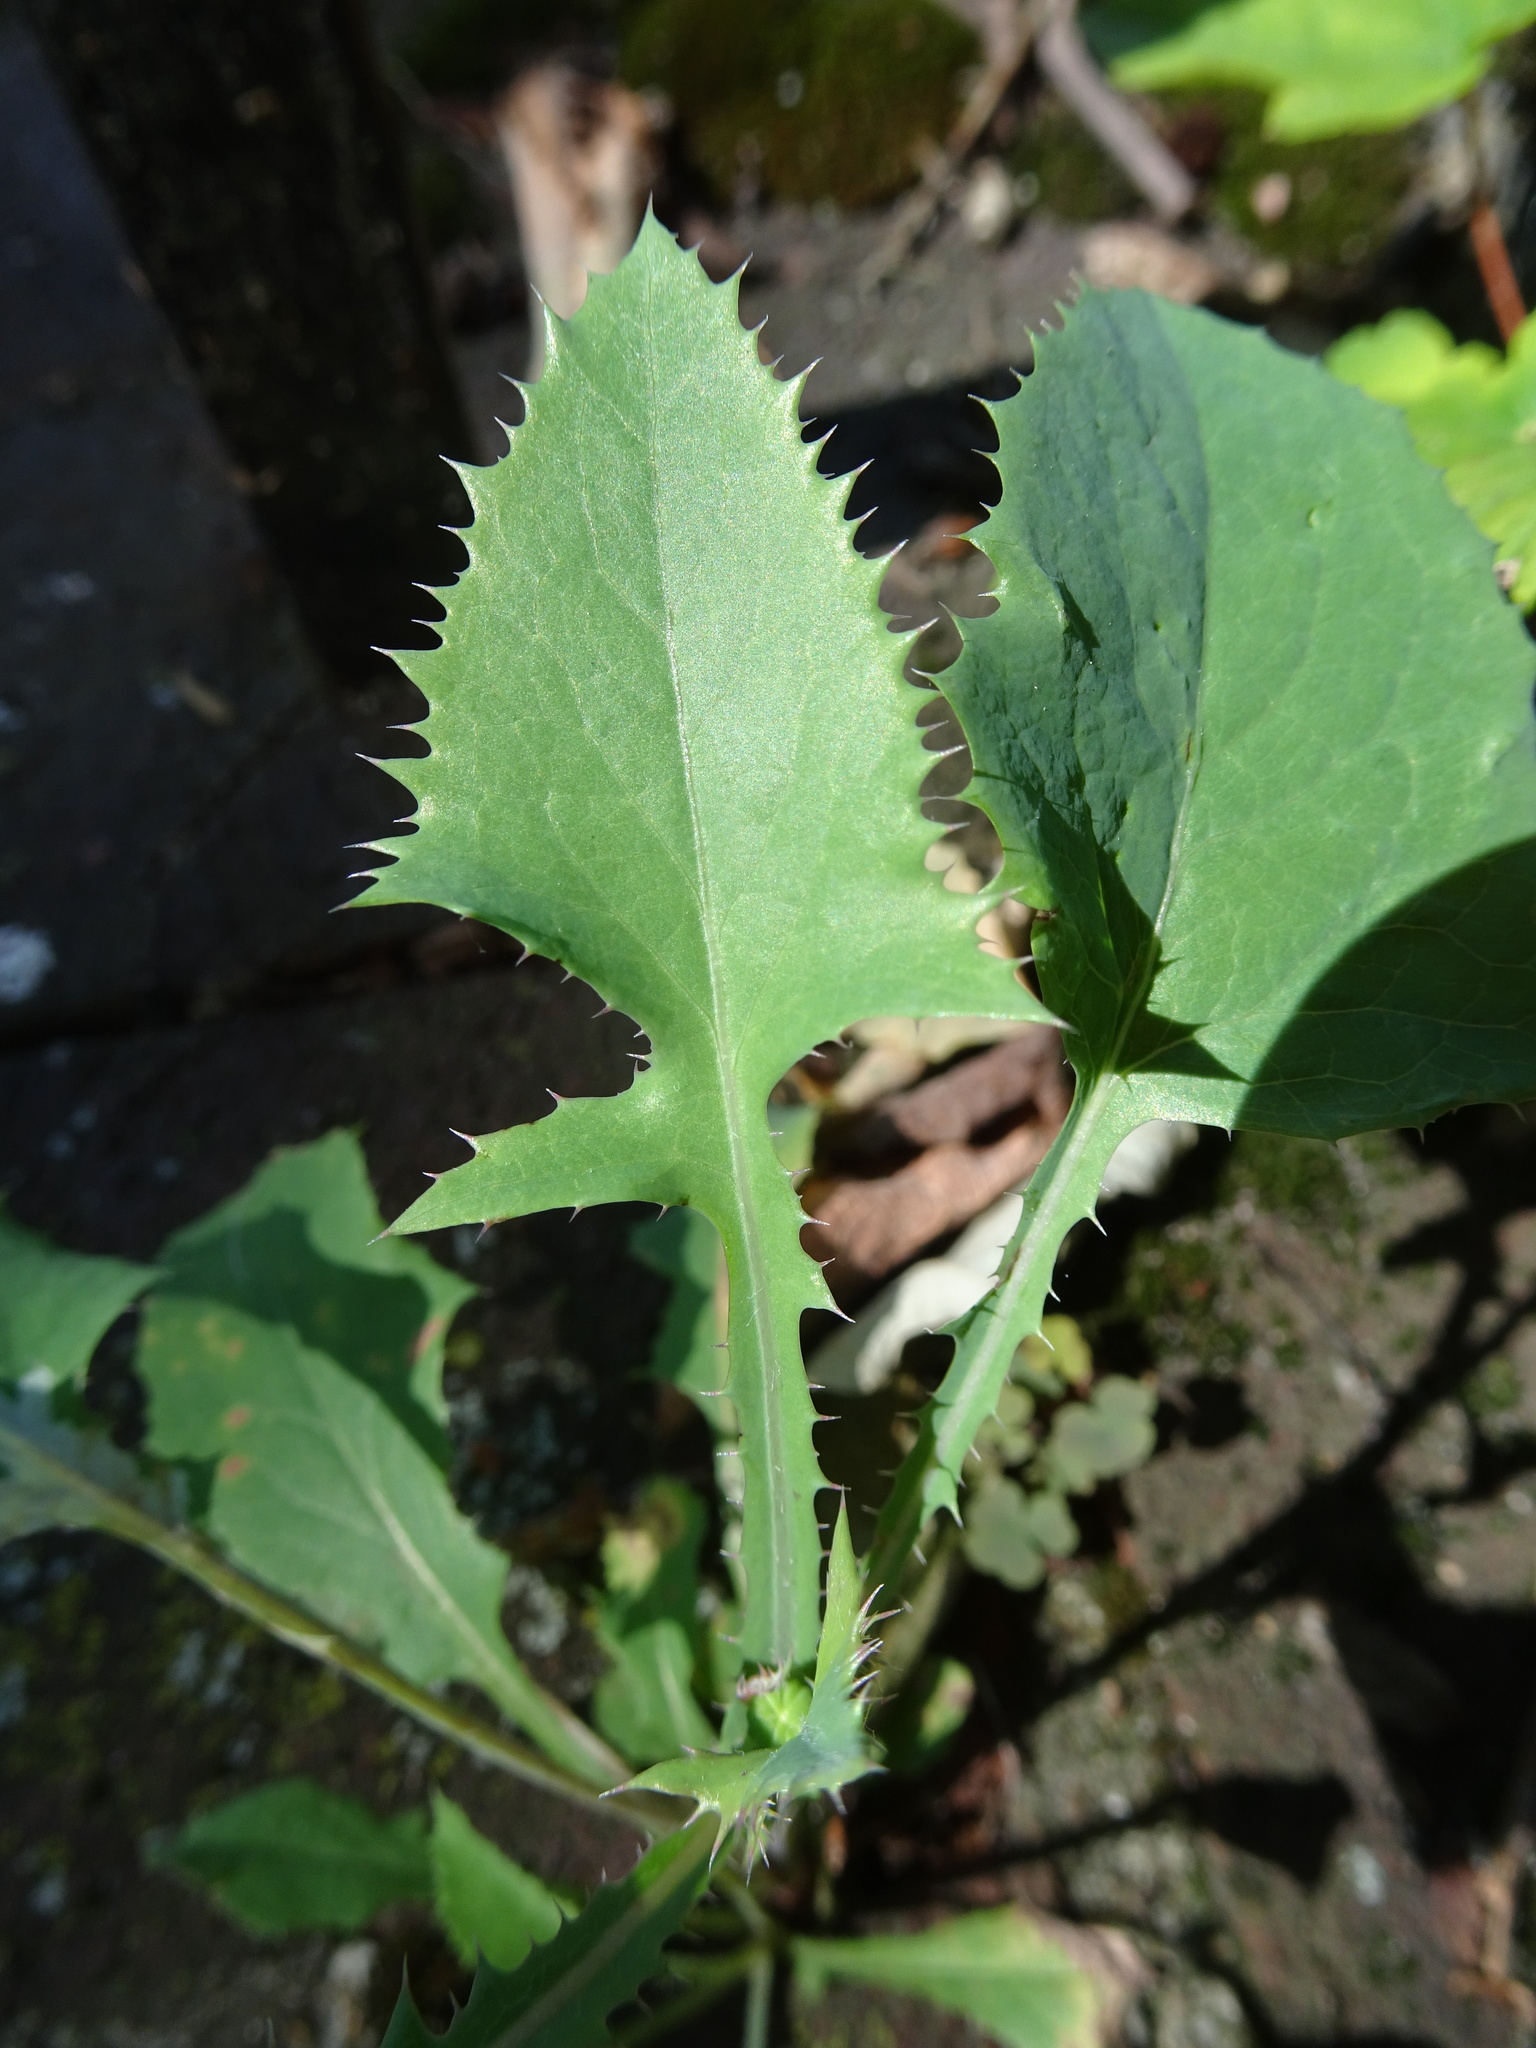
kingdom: Plantae
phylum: Tracheophyta
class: Magnoliopsida
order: Asterales
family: Asteraceae
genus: Sonchus
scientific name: Sonchus oleraceus
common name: Common sowthistle
